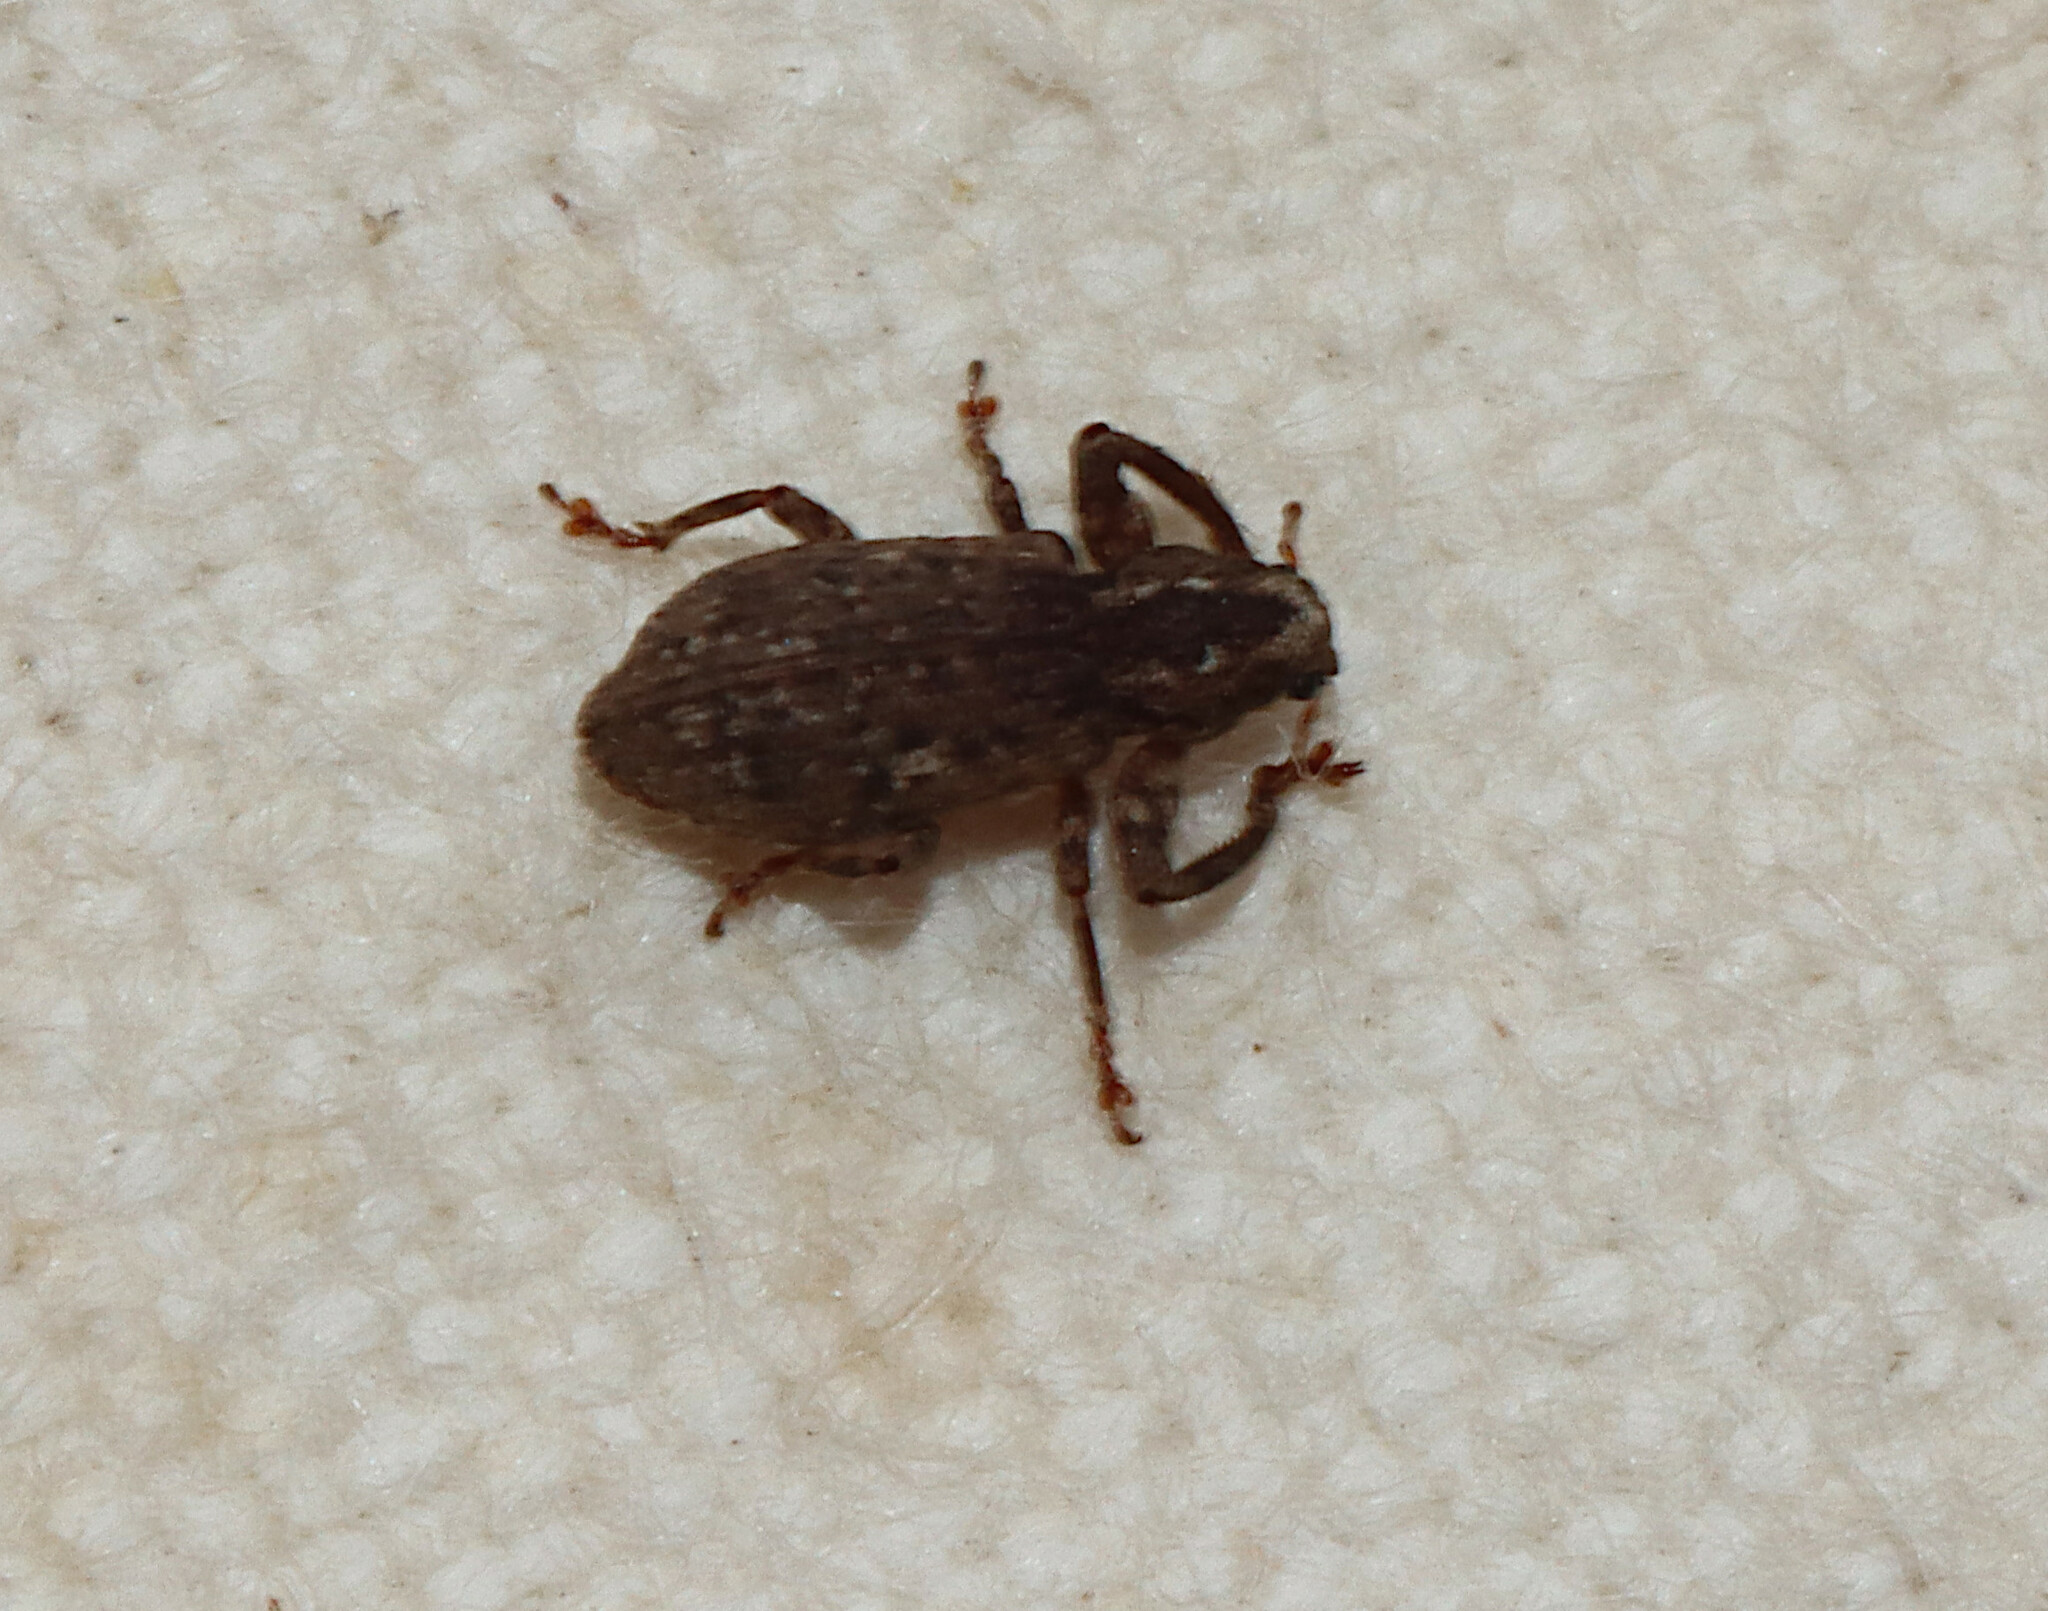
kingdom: Animalia
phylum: Arthropoda
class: Insecta
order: Coleoptera
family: Curculionidae
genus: Pandeleteius
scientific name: Pandeleteius hilaris
